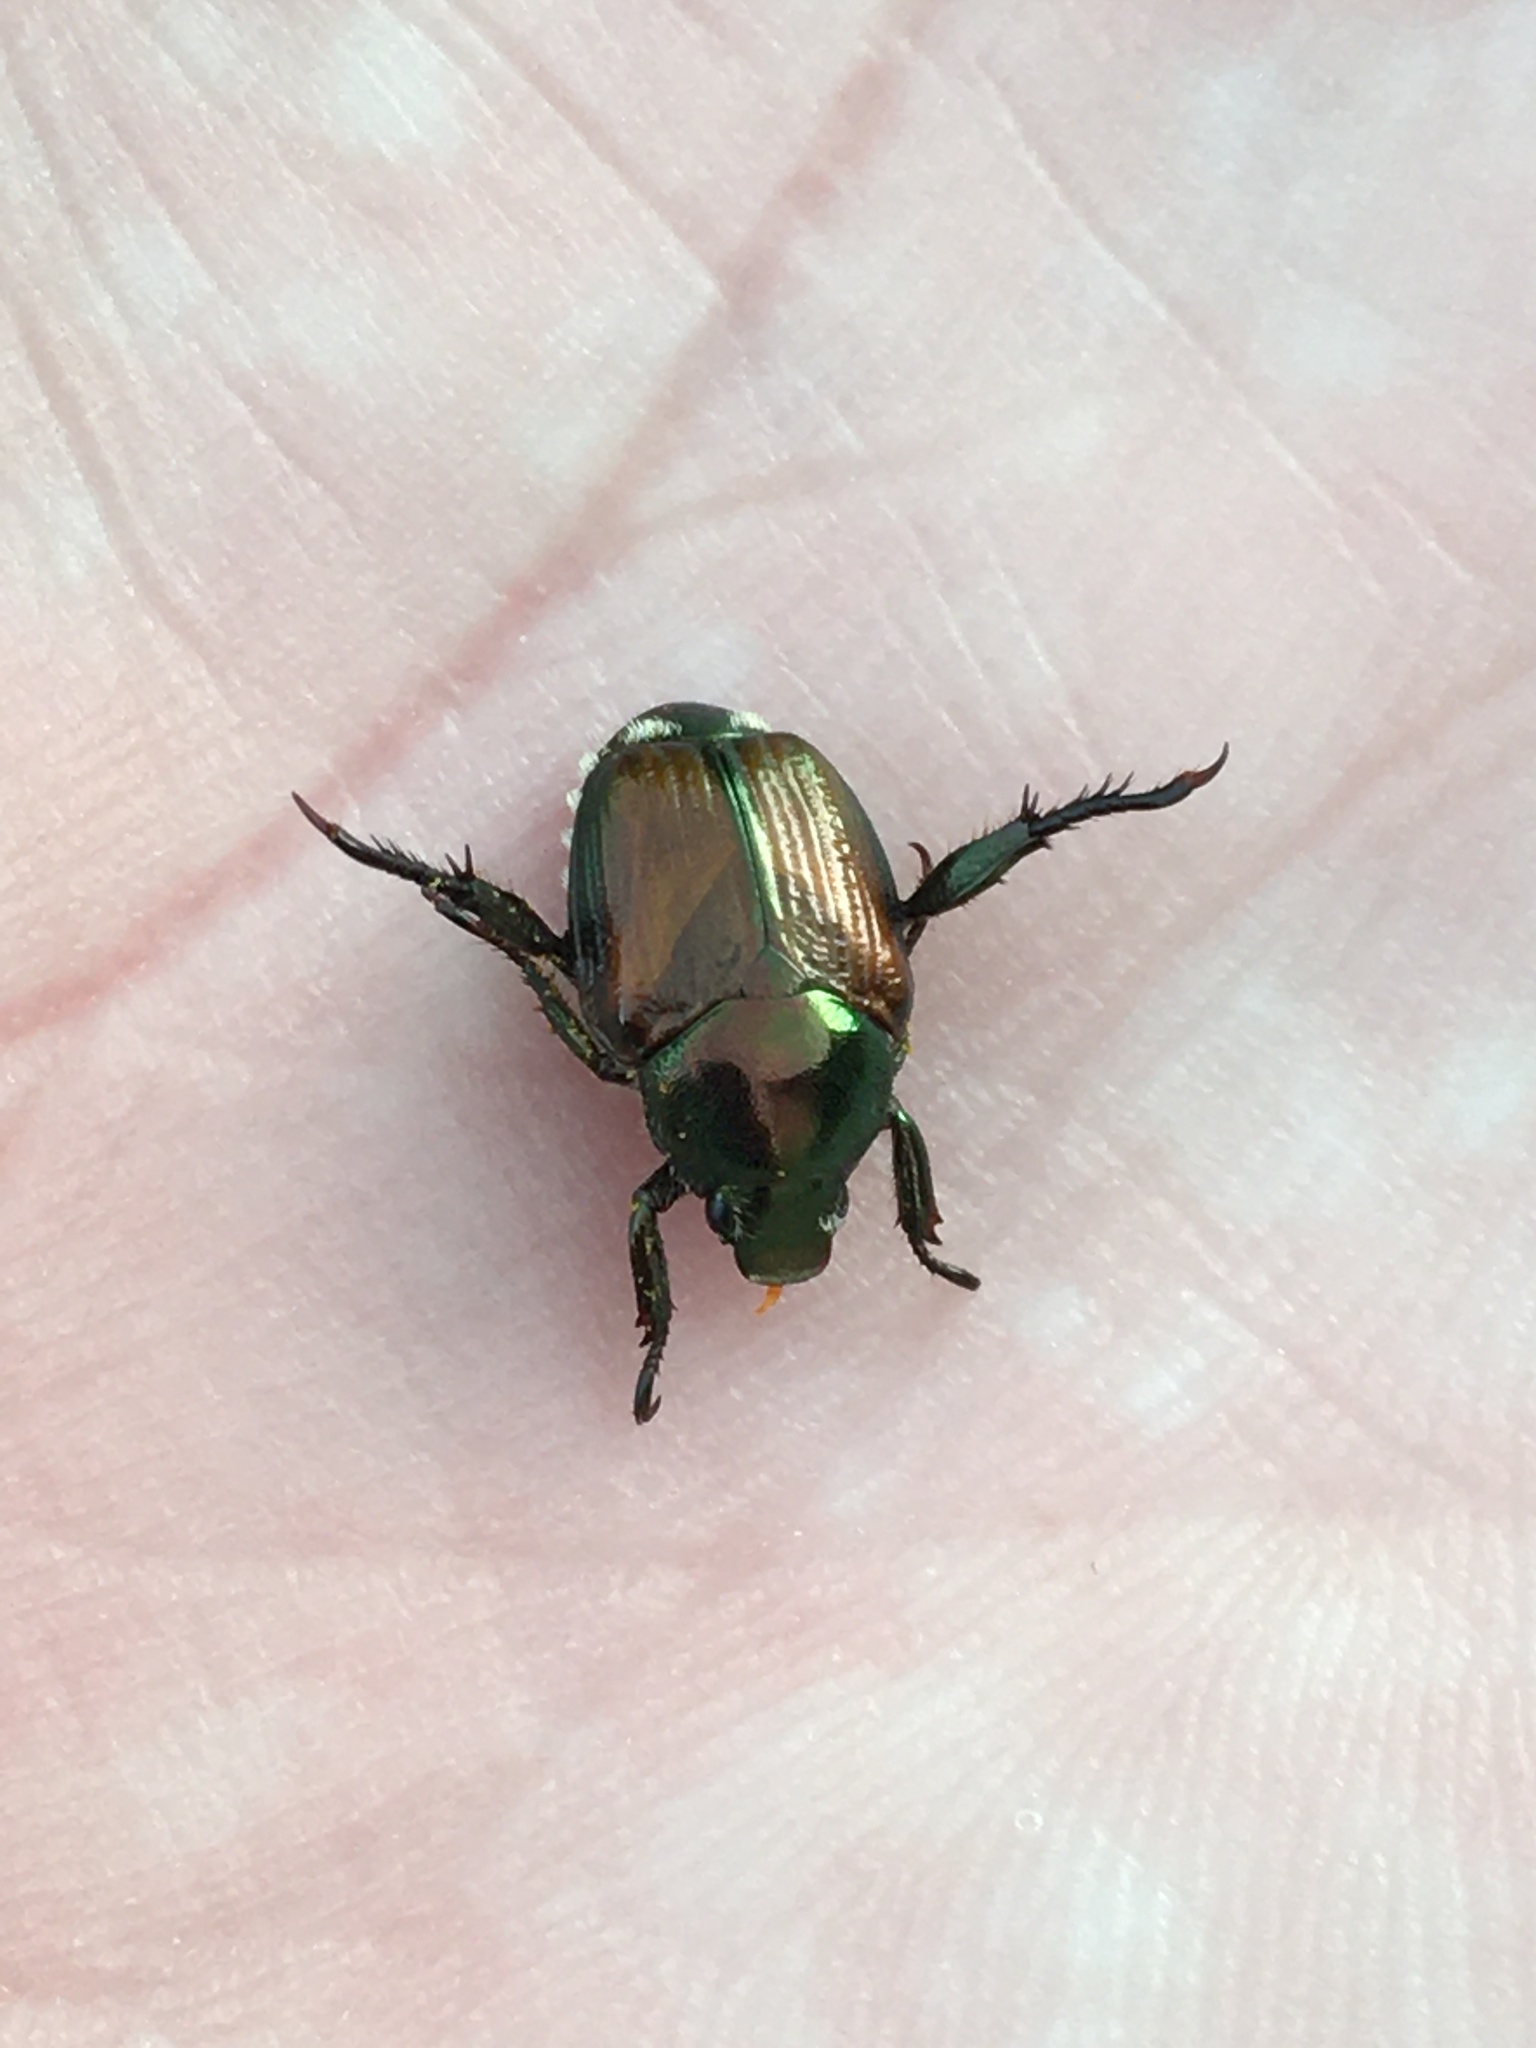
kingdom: Animalia
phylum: Arthropoda
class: Insecta
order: Coleoptera
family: Scarabaeidae
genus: Popillia
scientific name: Popillia japonica
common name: Japanese beetle
